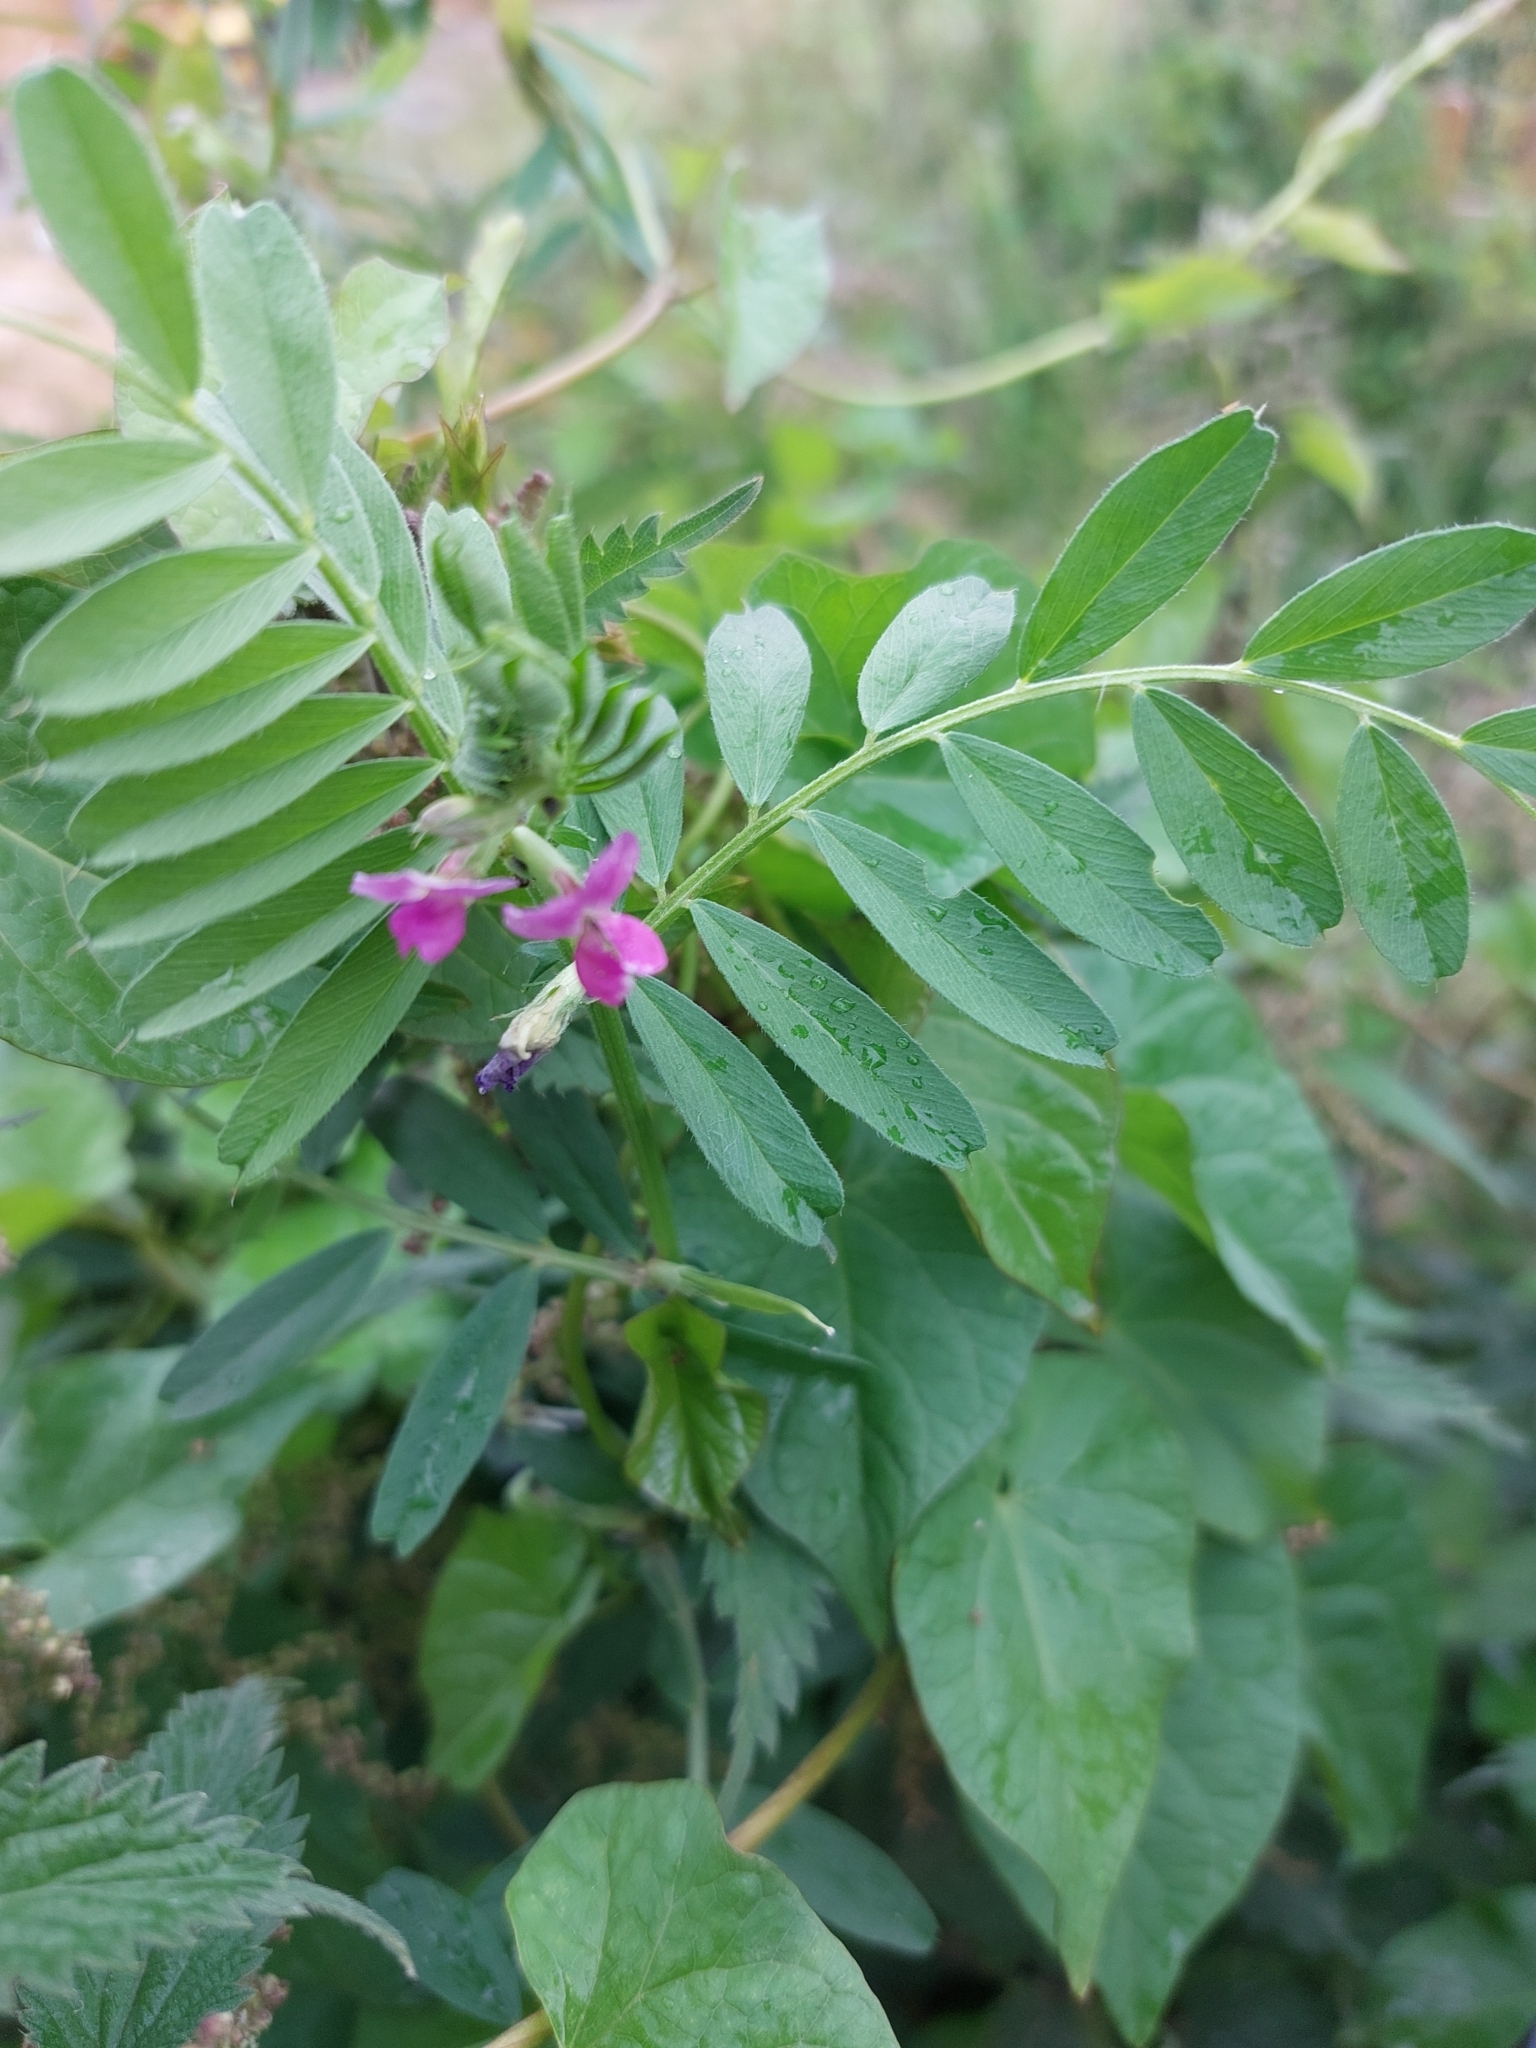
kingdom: Plantae
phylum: Tracheophyta
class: Magnoliopsida
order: Fabales
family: Fabaceae
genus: Vicia
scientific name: Vicia sativa
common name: Garden vetch
